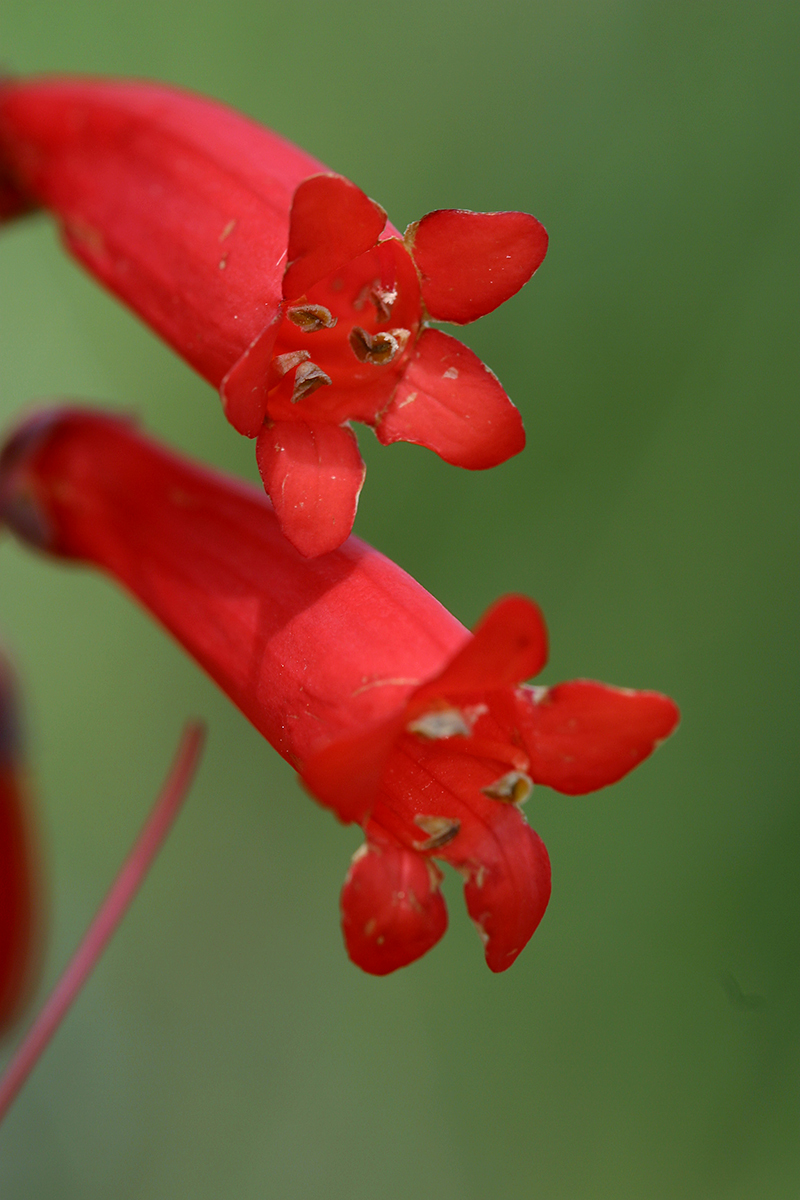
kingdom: Plantae
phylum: Tracheophyta
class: Magnoliopsida
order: Lamiales
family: Plantaginaceae
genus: Penstemon
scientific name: Penstemon centranthifolius
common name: Scarlet bugler
